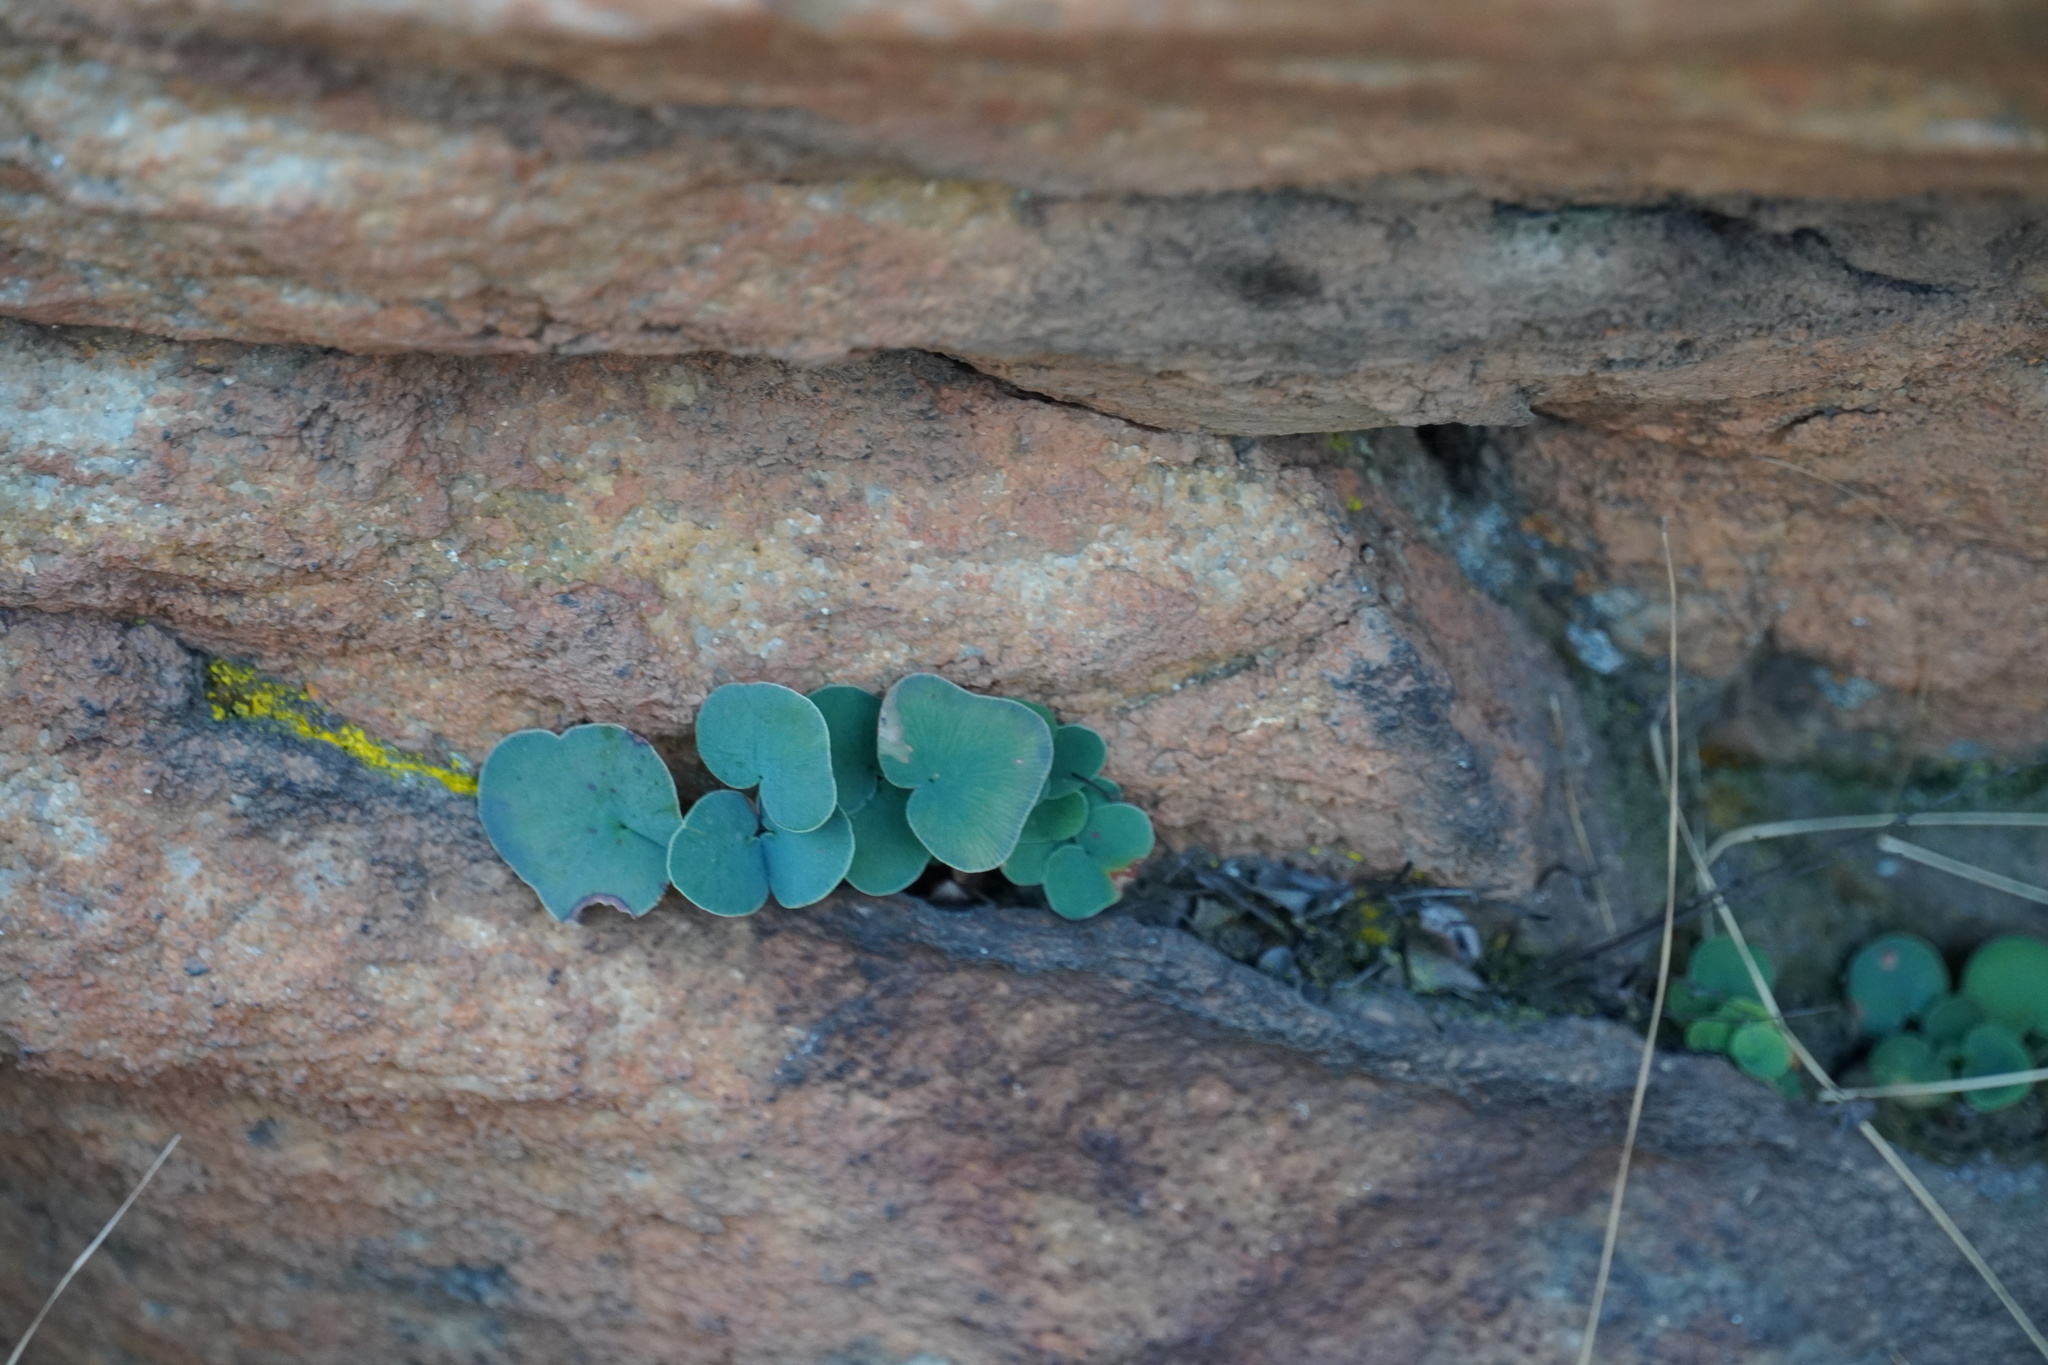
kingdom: Plantae
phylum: Tracheophyta
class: Polypodiopsida
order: Polypodiales
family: Pteridaceae
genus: Pellaea
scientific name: Pellaea calomelanos
